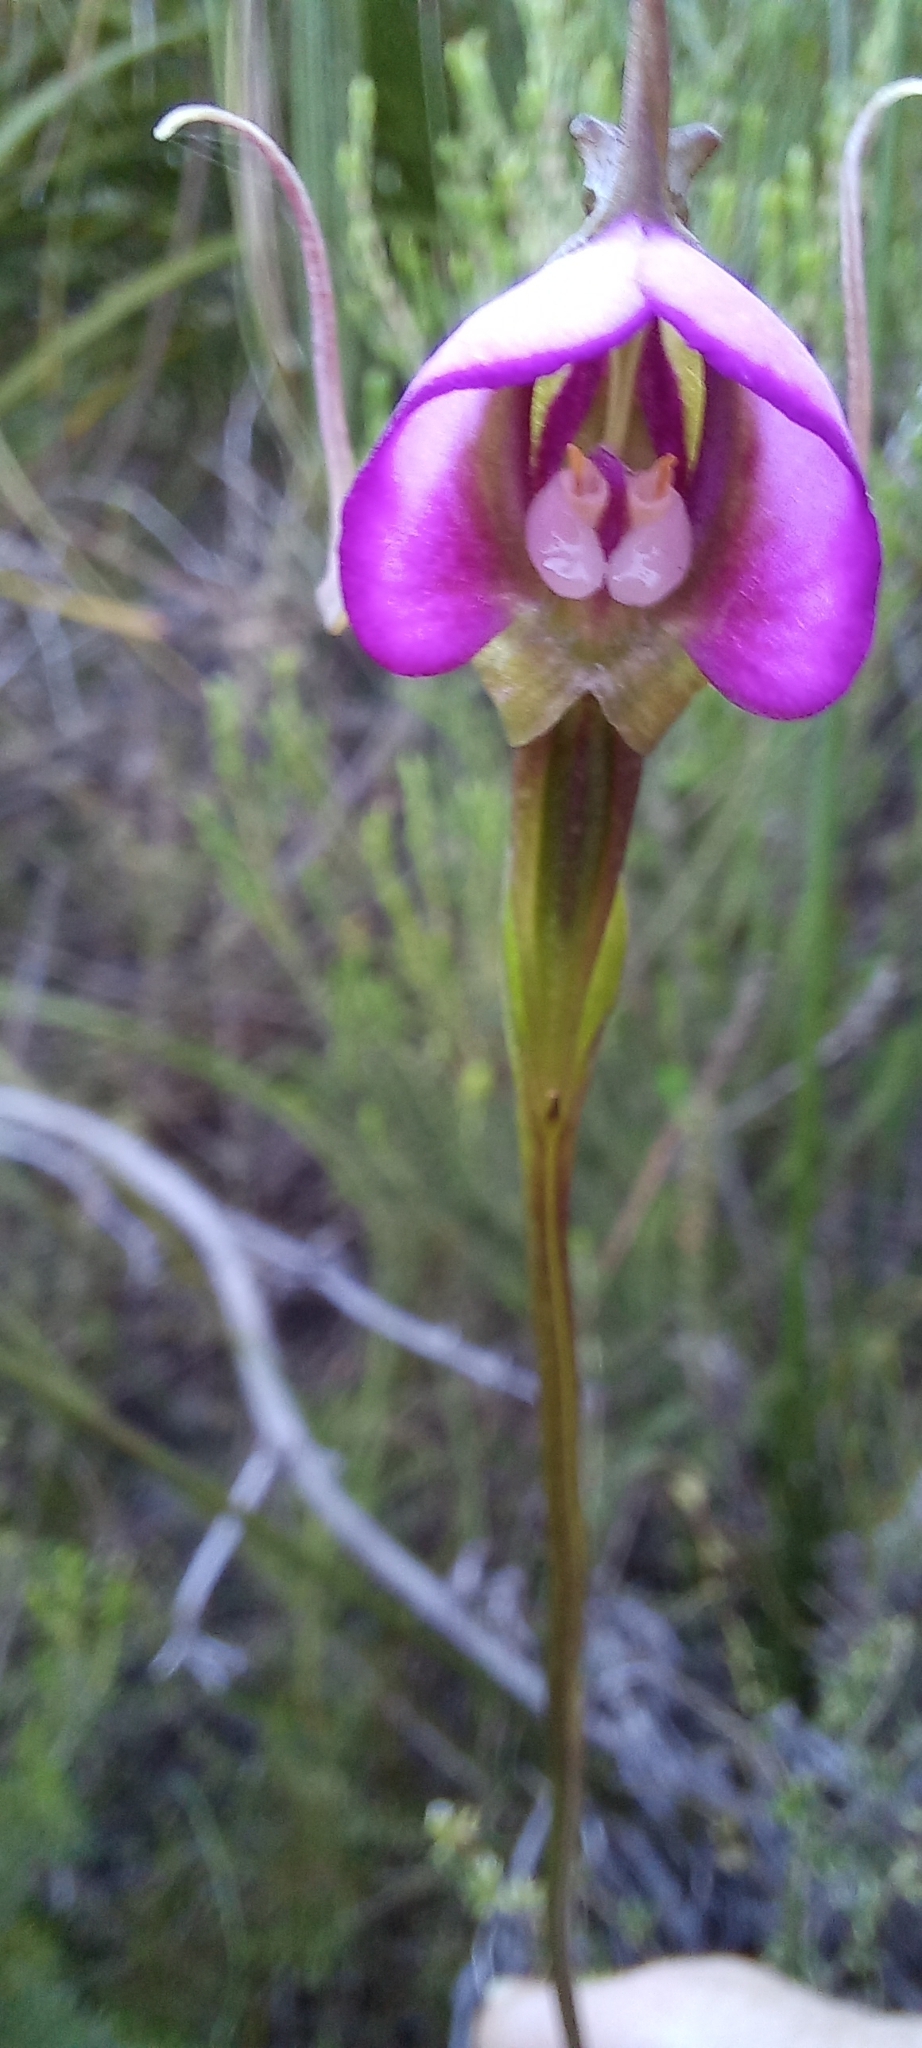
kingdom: Plantae
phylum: Tracheophyta
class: Liliopsida
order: Asparagales
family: Orchidaceae
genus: Disperis
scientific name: Disperis capensis
